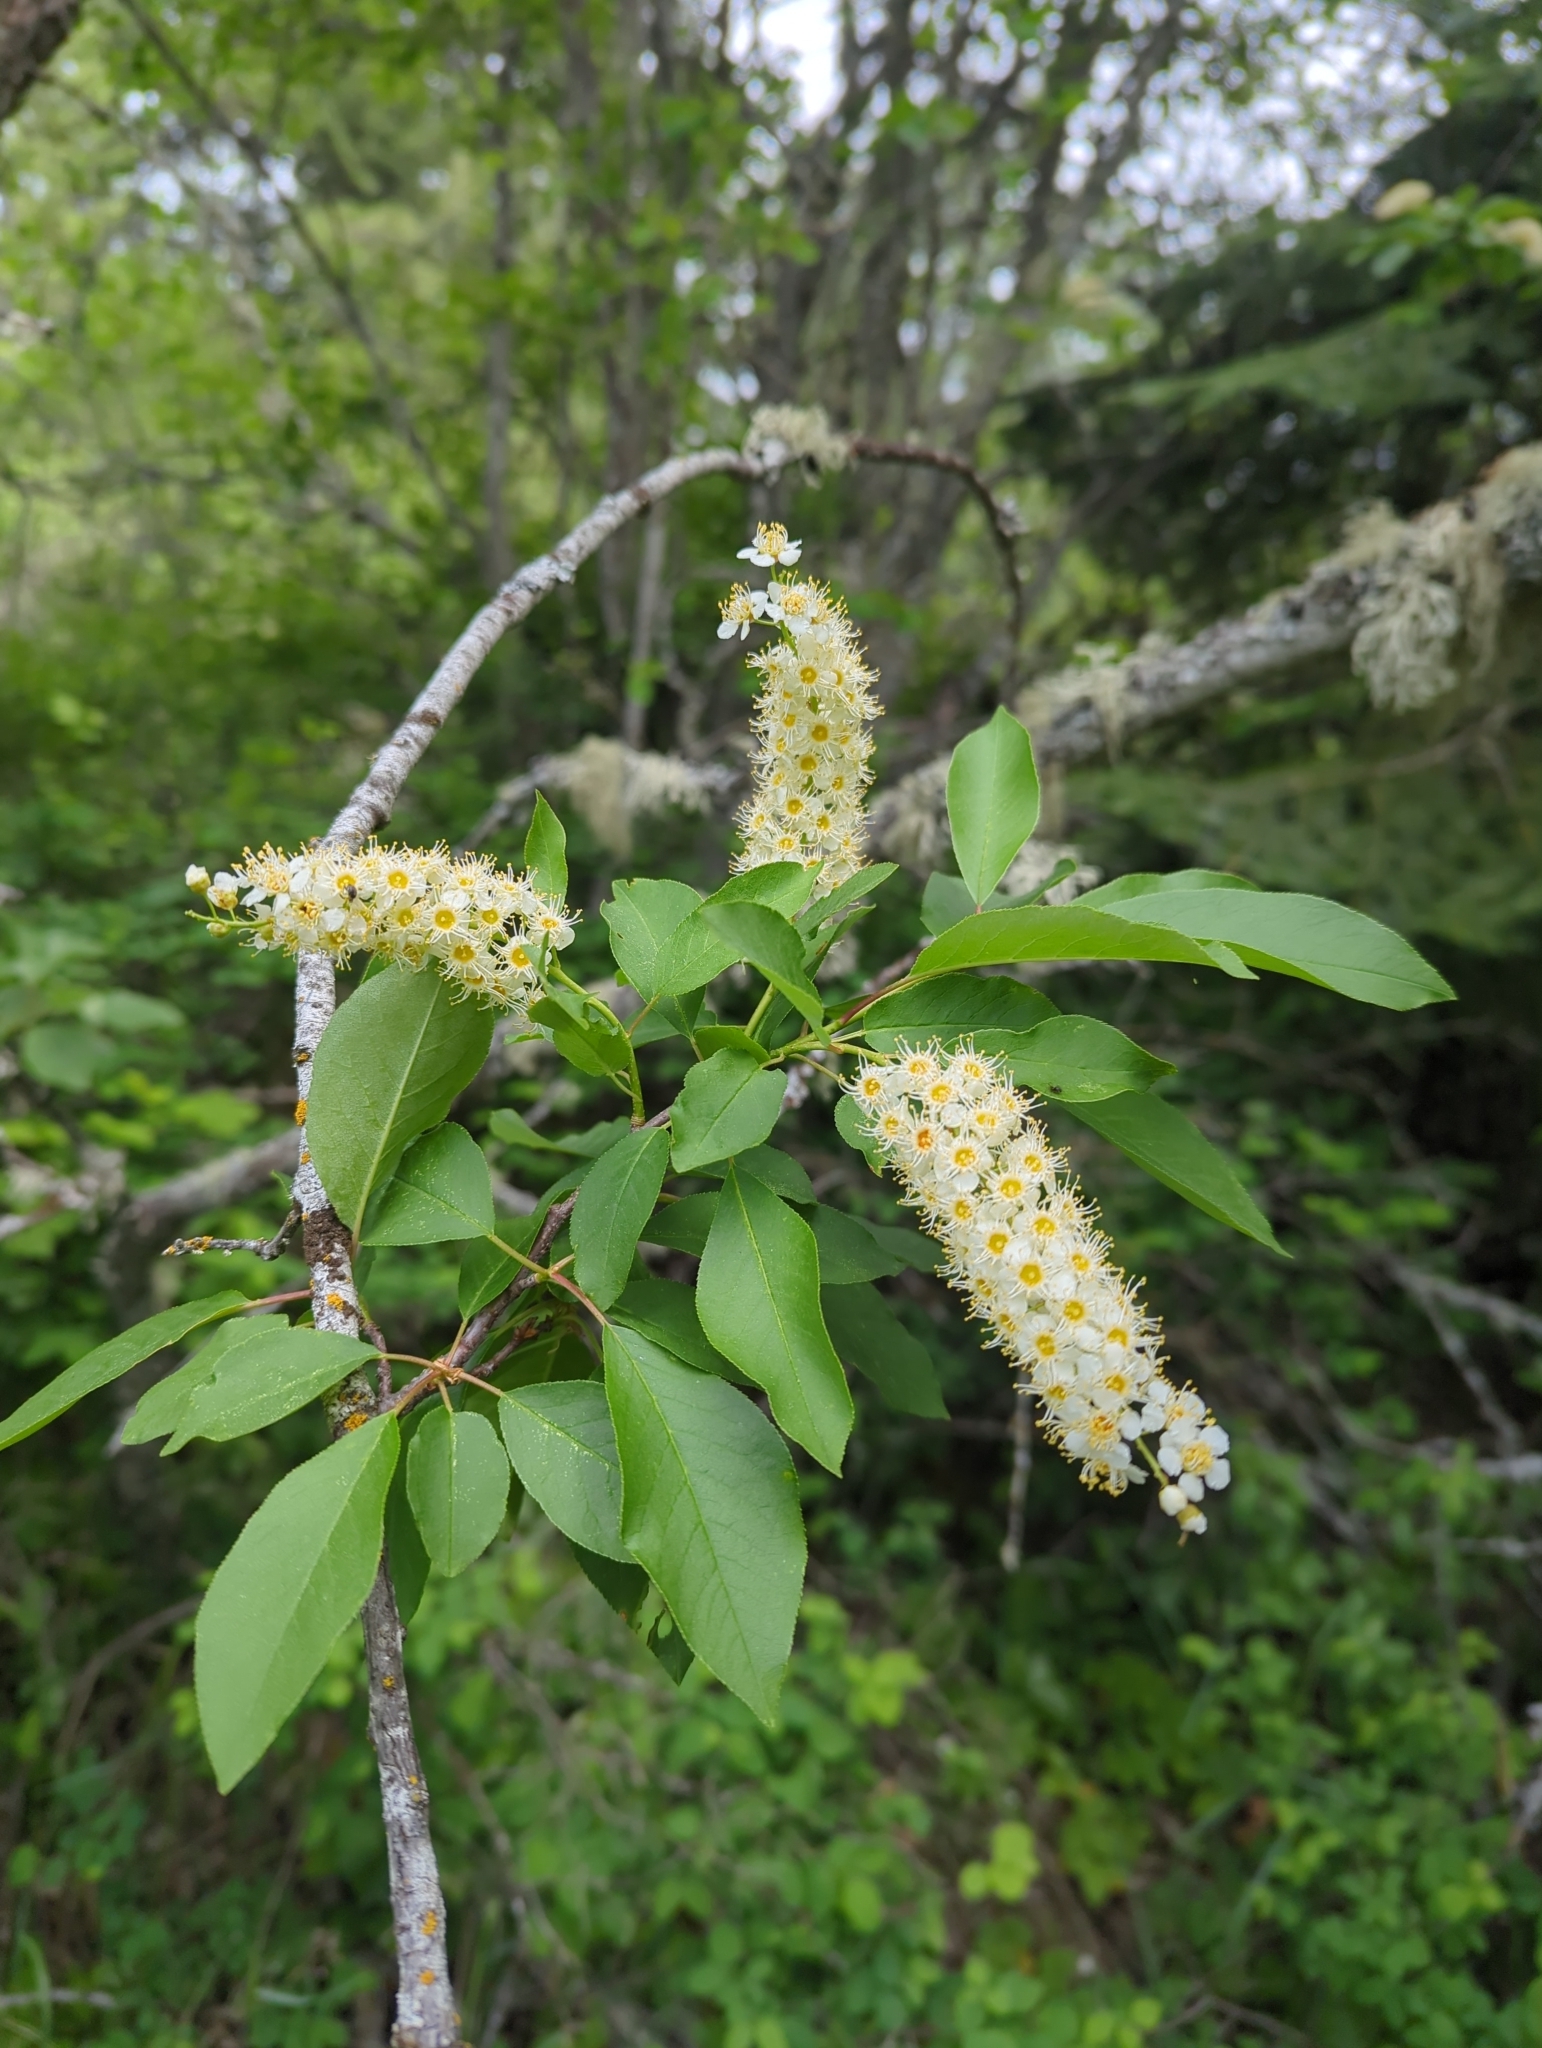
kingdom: Plantae
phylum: Tracheophyta
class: Magnoliopsida
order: Rosales
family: Rosaceae
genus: Prunus
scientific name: Prunus virginiana
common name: Chokecherry
